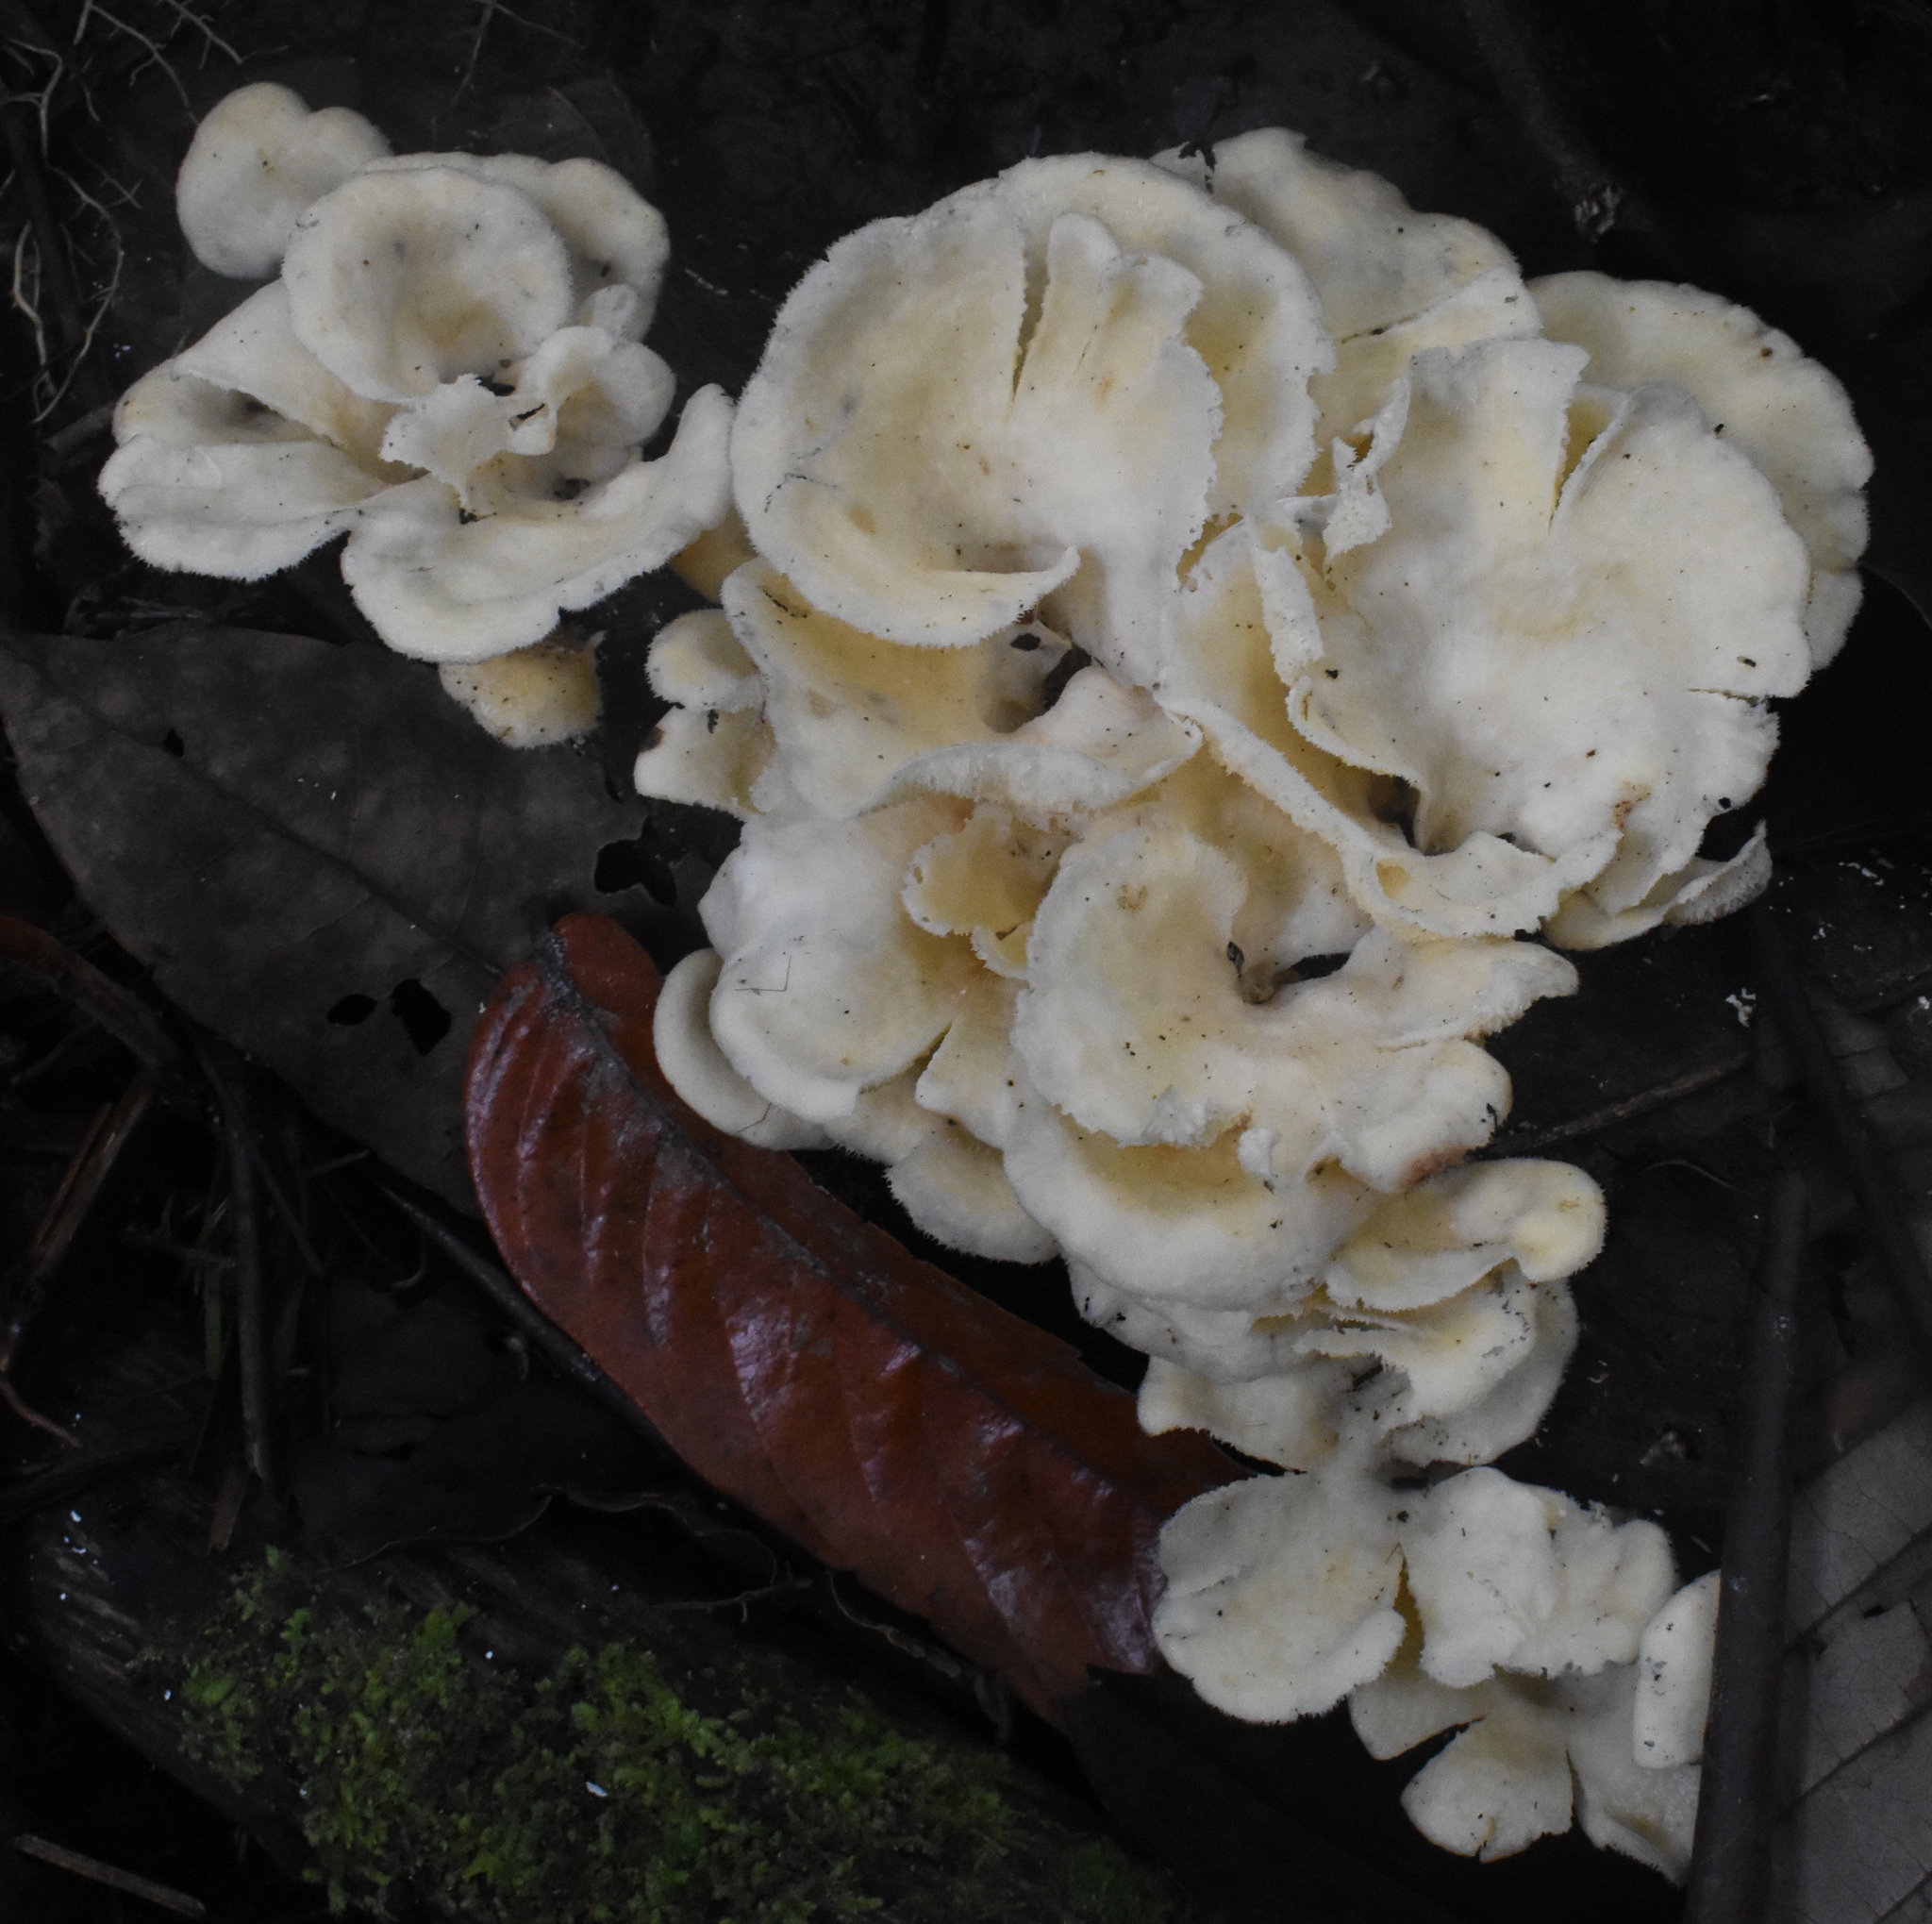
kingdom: Fungi
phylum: Basidiomycota
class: Agaricomycetes
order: Polyporales
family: Polyporaceae
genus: Favolus
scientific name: Favolus tenuiculus
